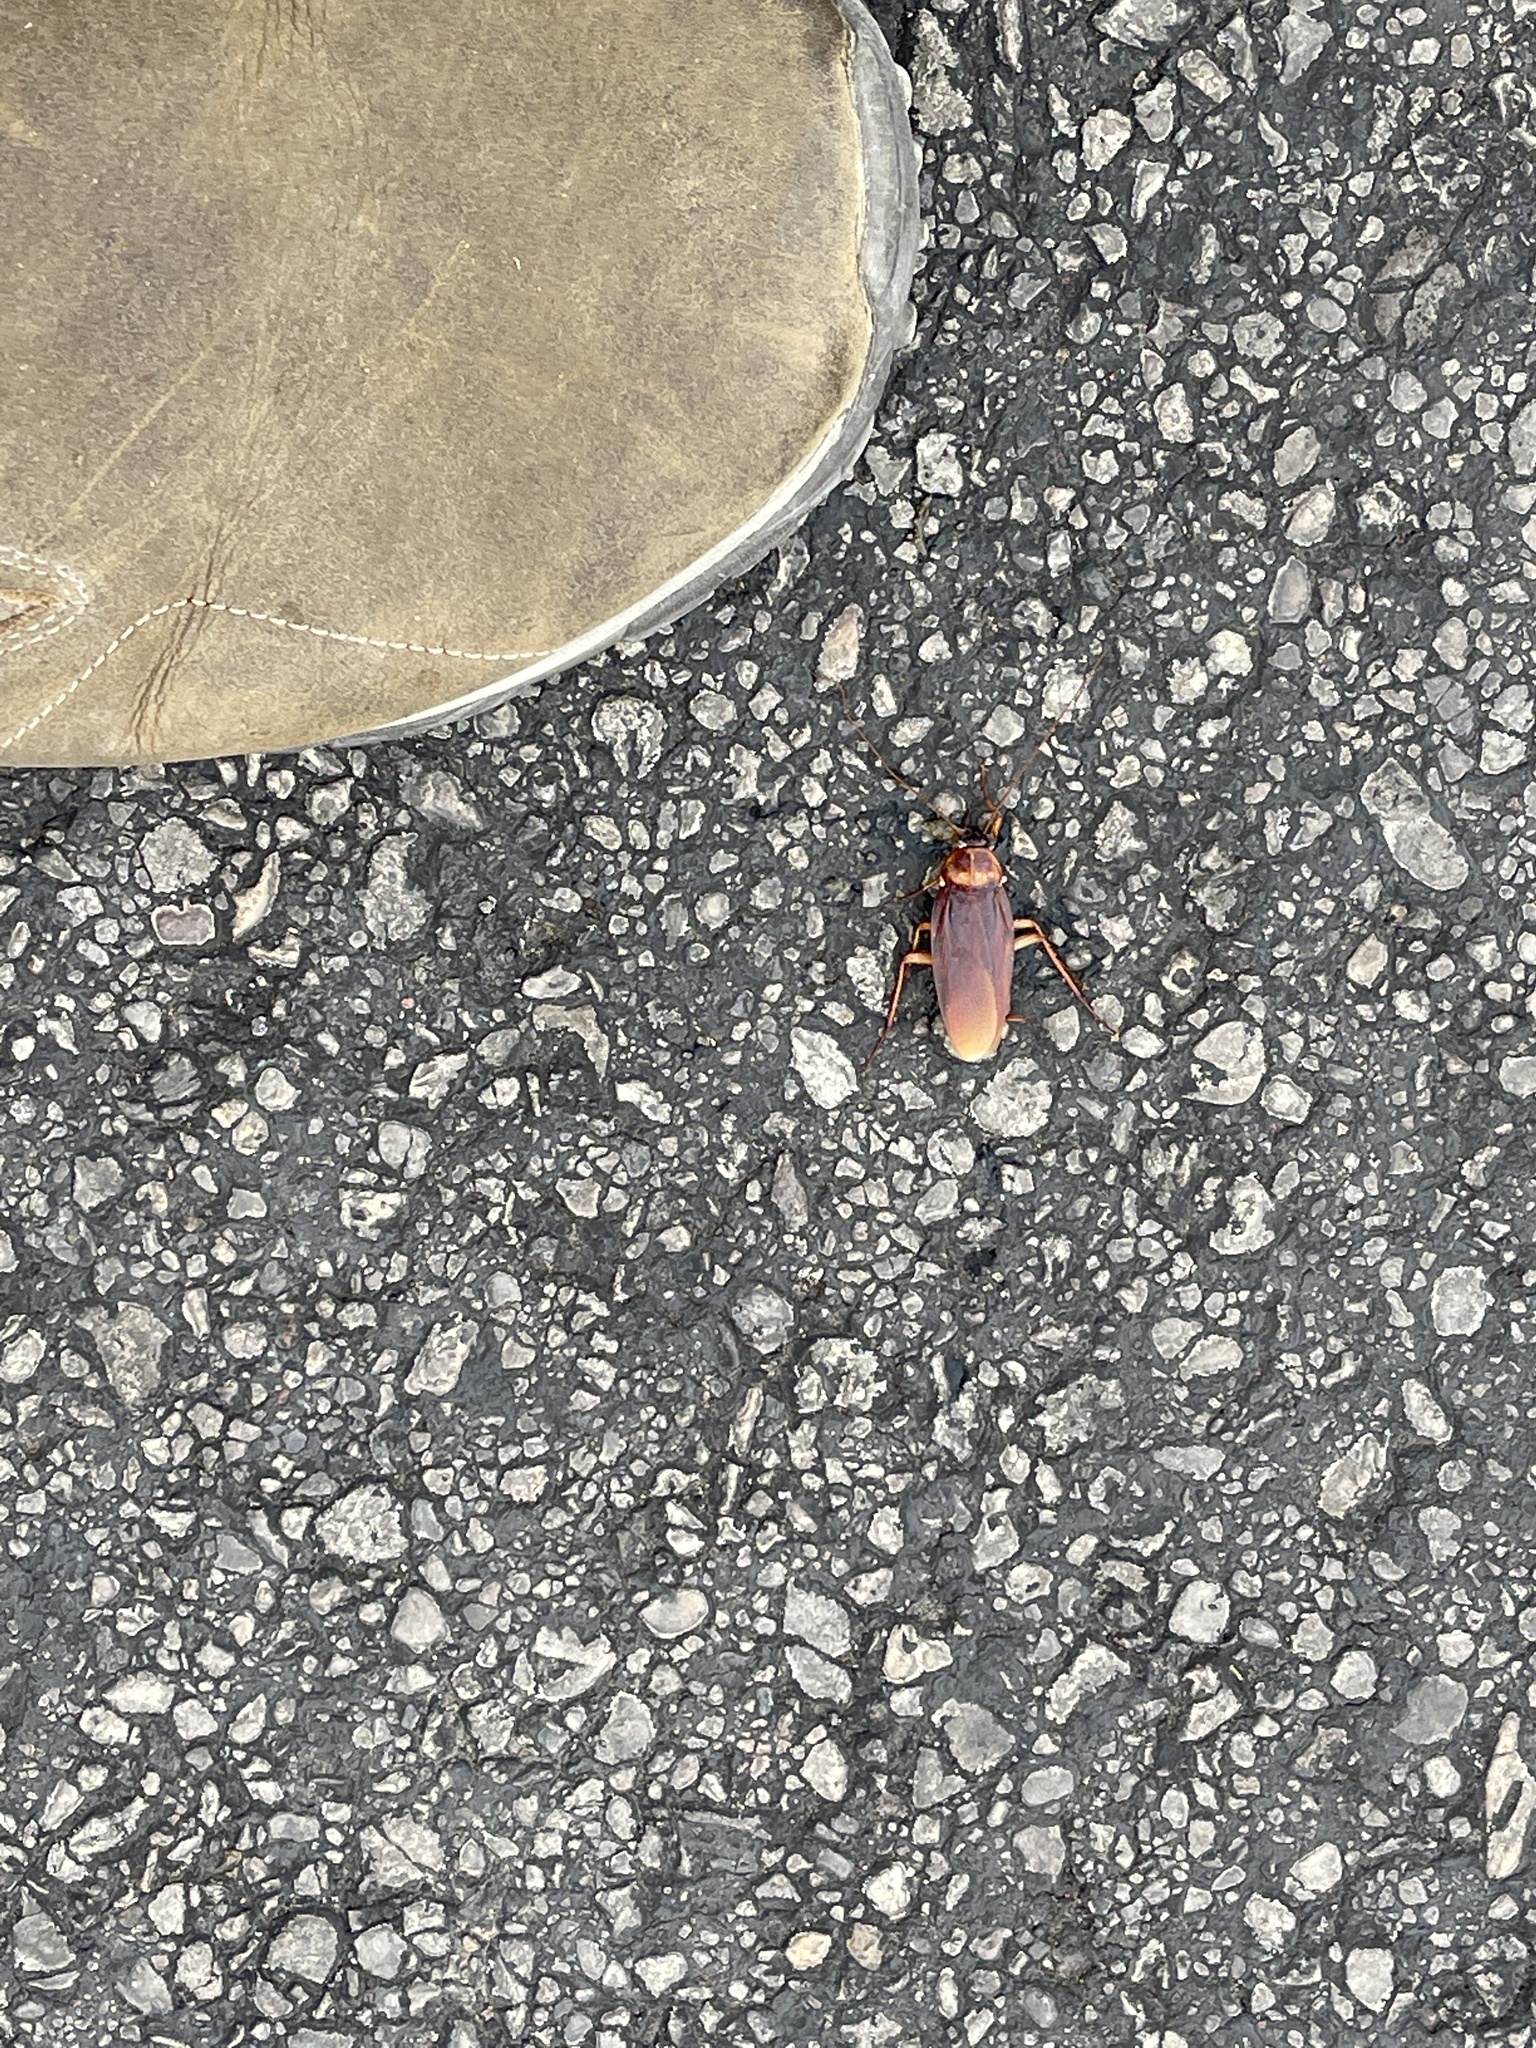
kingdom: Animalia
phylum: Arthropoda
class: Insecta
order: Blattodea
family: Blattidae
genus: Periplaneta
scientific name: Periplaneta americana
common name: American cockroach
